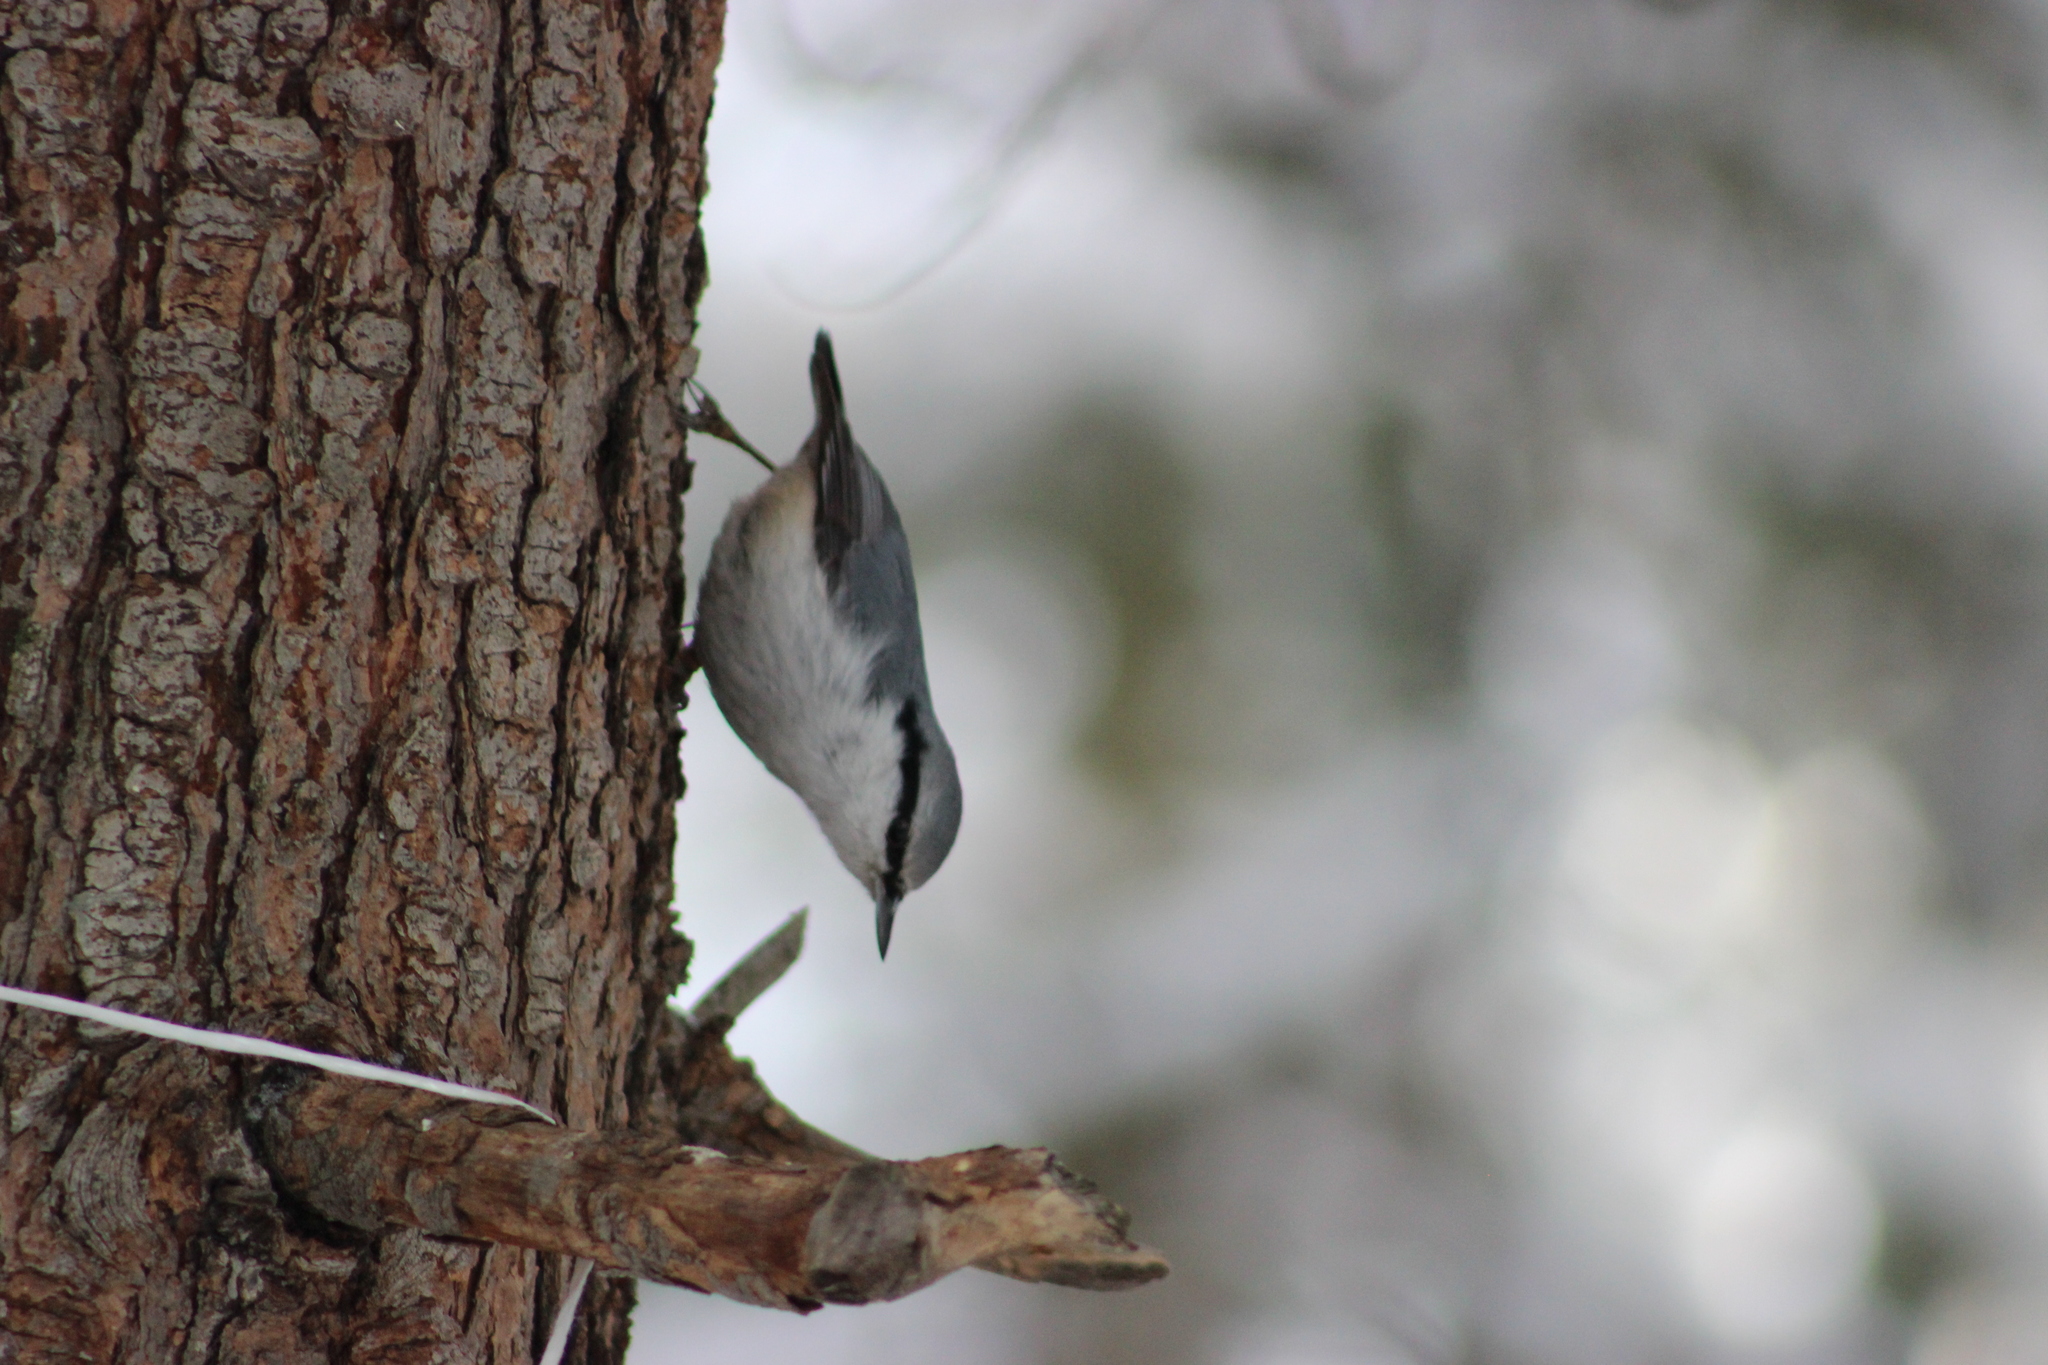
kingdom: Animalia
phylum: Chordata
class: Aves
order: Passeriformes
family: Sittidae
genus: Sitta
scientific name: Sitta europaea
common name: Eurasian nuthatch
